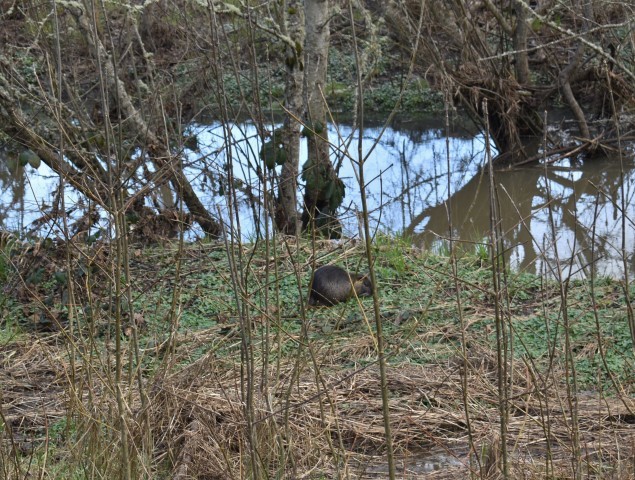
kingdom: Animalia
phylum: Chordata
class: Mammalia
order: Rodentia
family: Myocastoridae
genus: Myocastor
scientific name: Myocastor coypus
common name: Coypu
